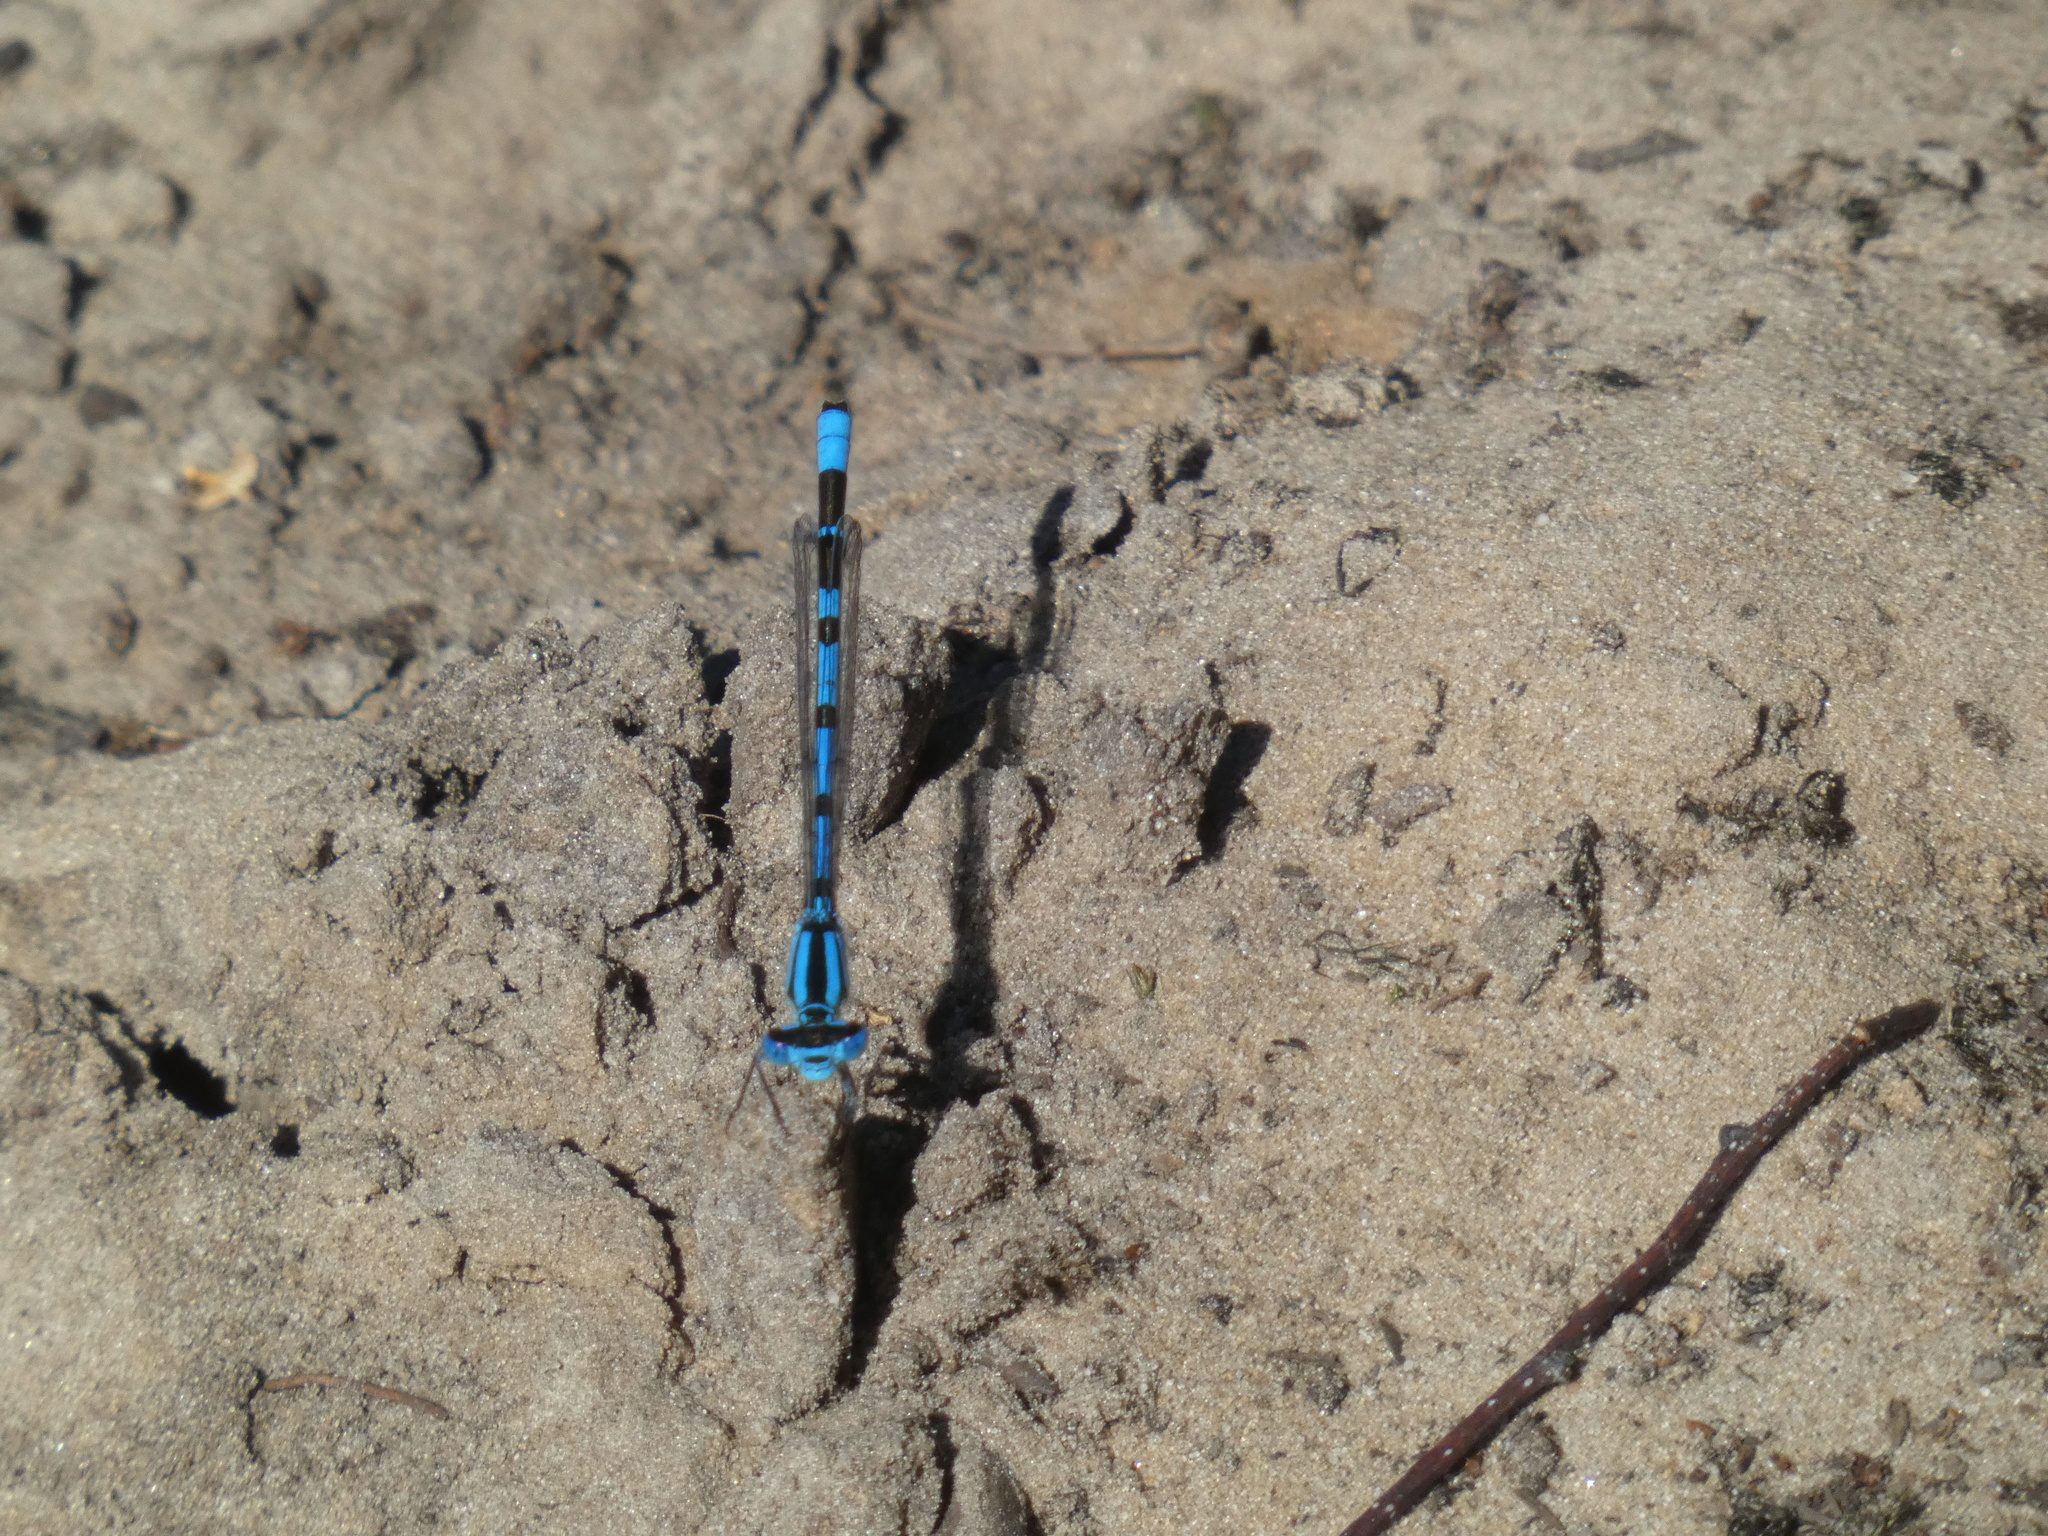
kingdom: Animalia
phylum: Arthropoda
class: Insecta
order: Odonata
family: Coenagrionidae
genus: Enallagma
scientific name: Enallagma cyathigerum
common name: Common blue damselfly
